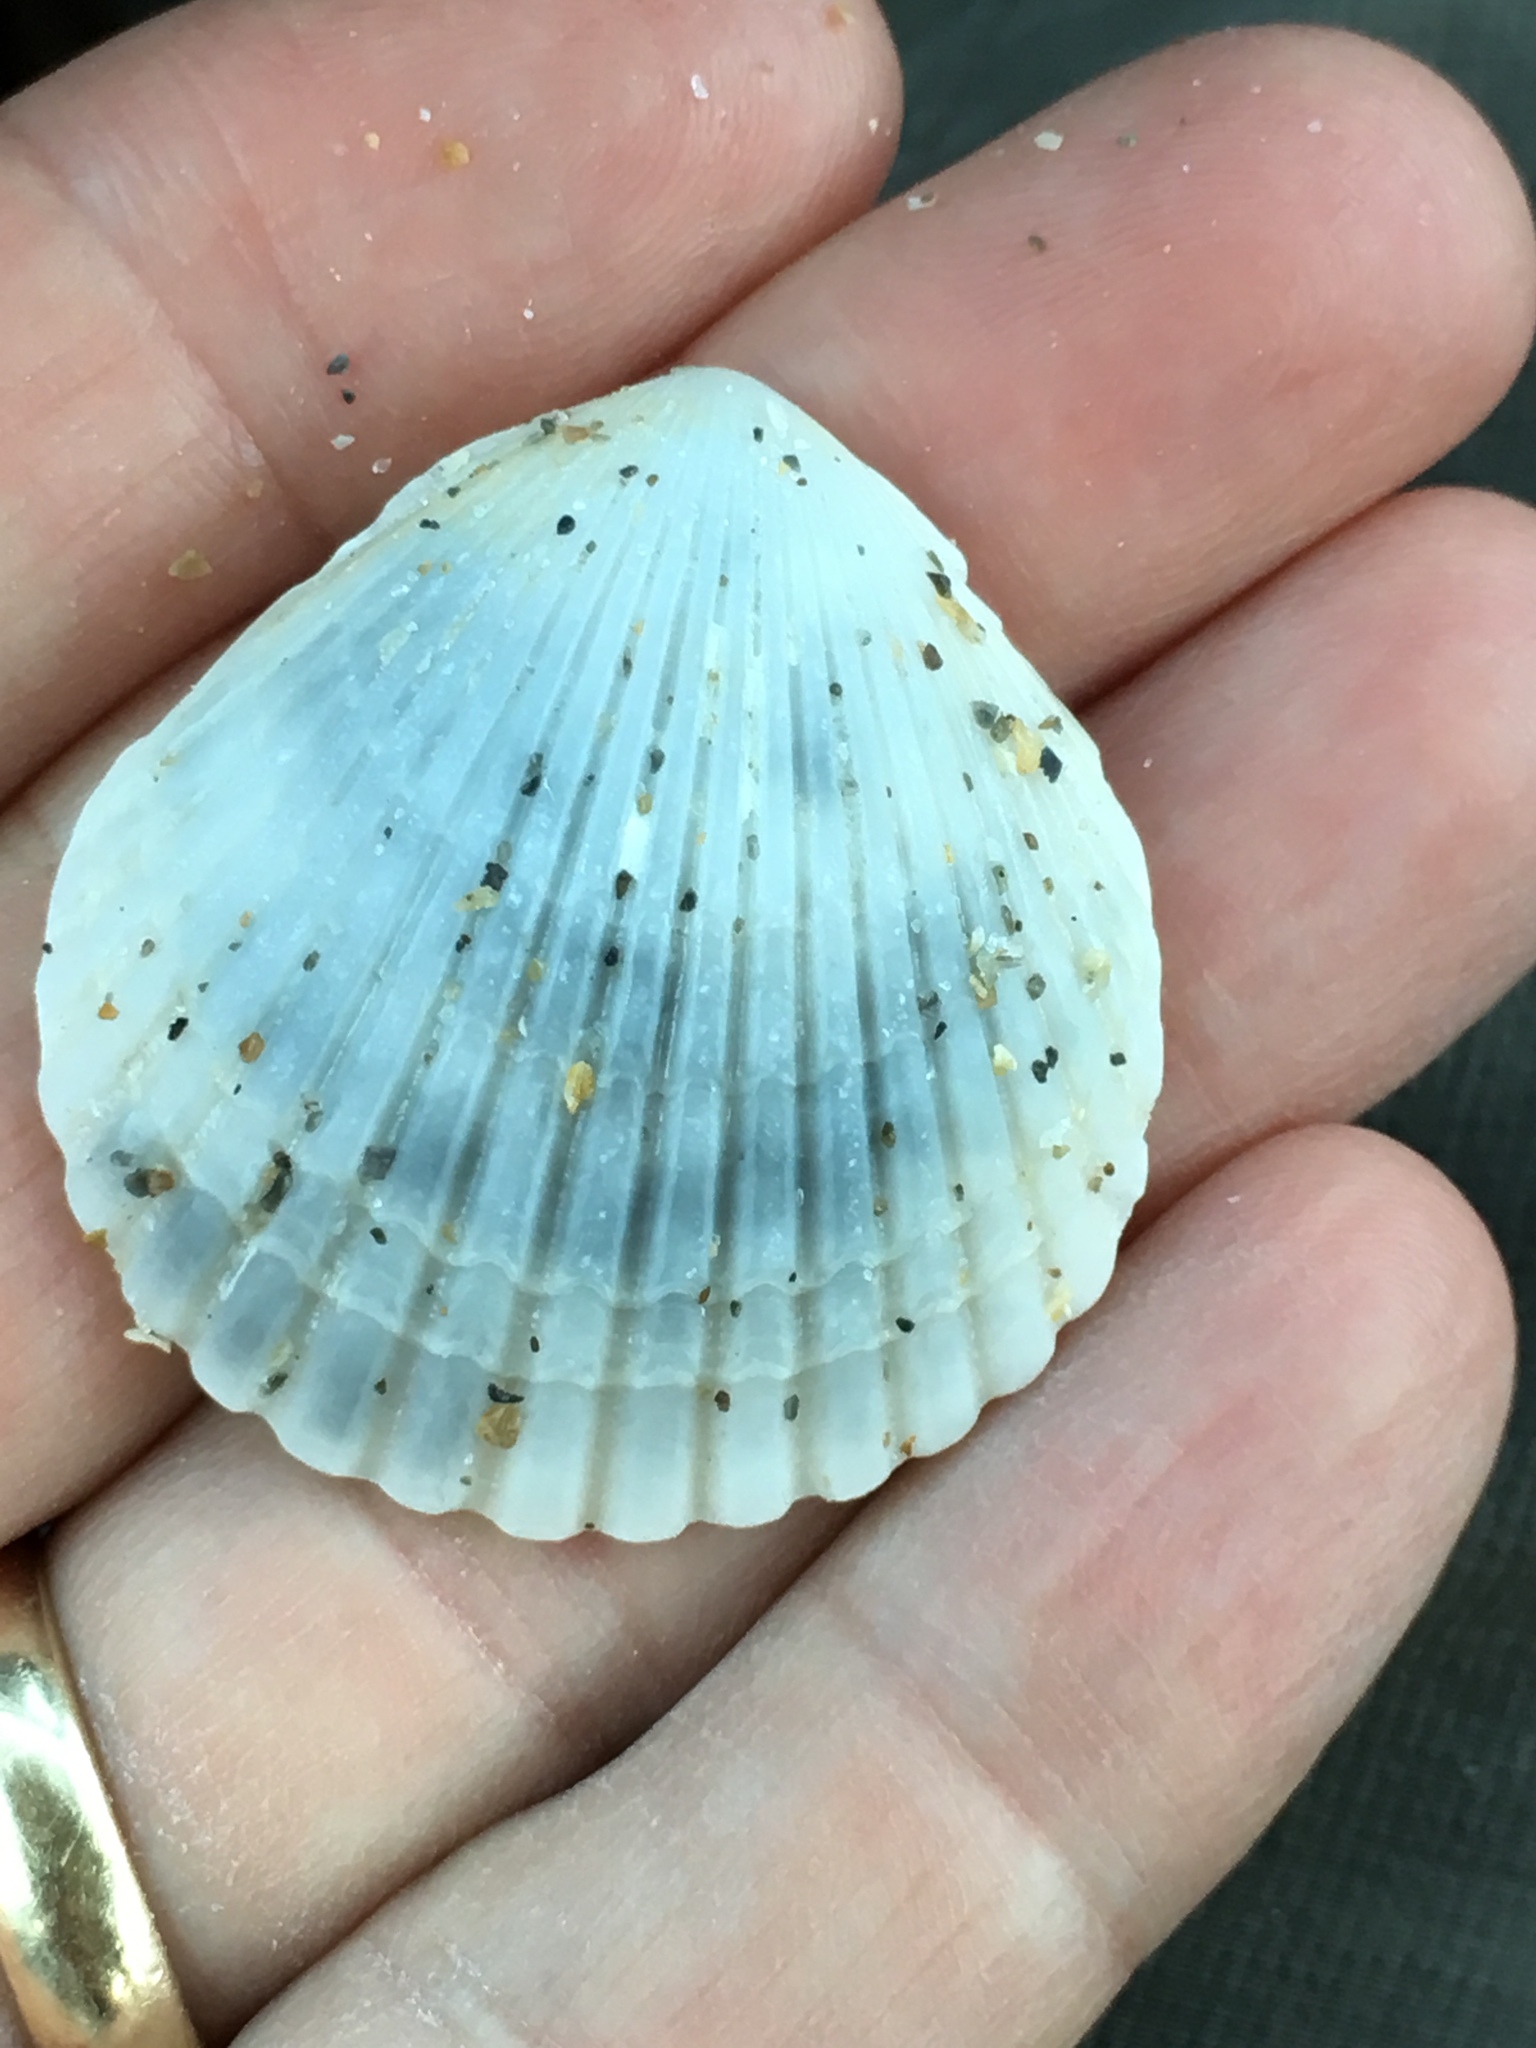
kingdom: Animalia
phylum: Mollusca
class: Bivalvia
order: Pectinida
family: Pectinidae
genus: Argopecten
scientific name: Argopecten gibbus
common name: Atlantic calico scallop
